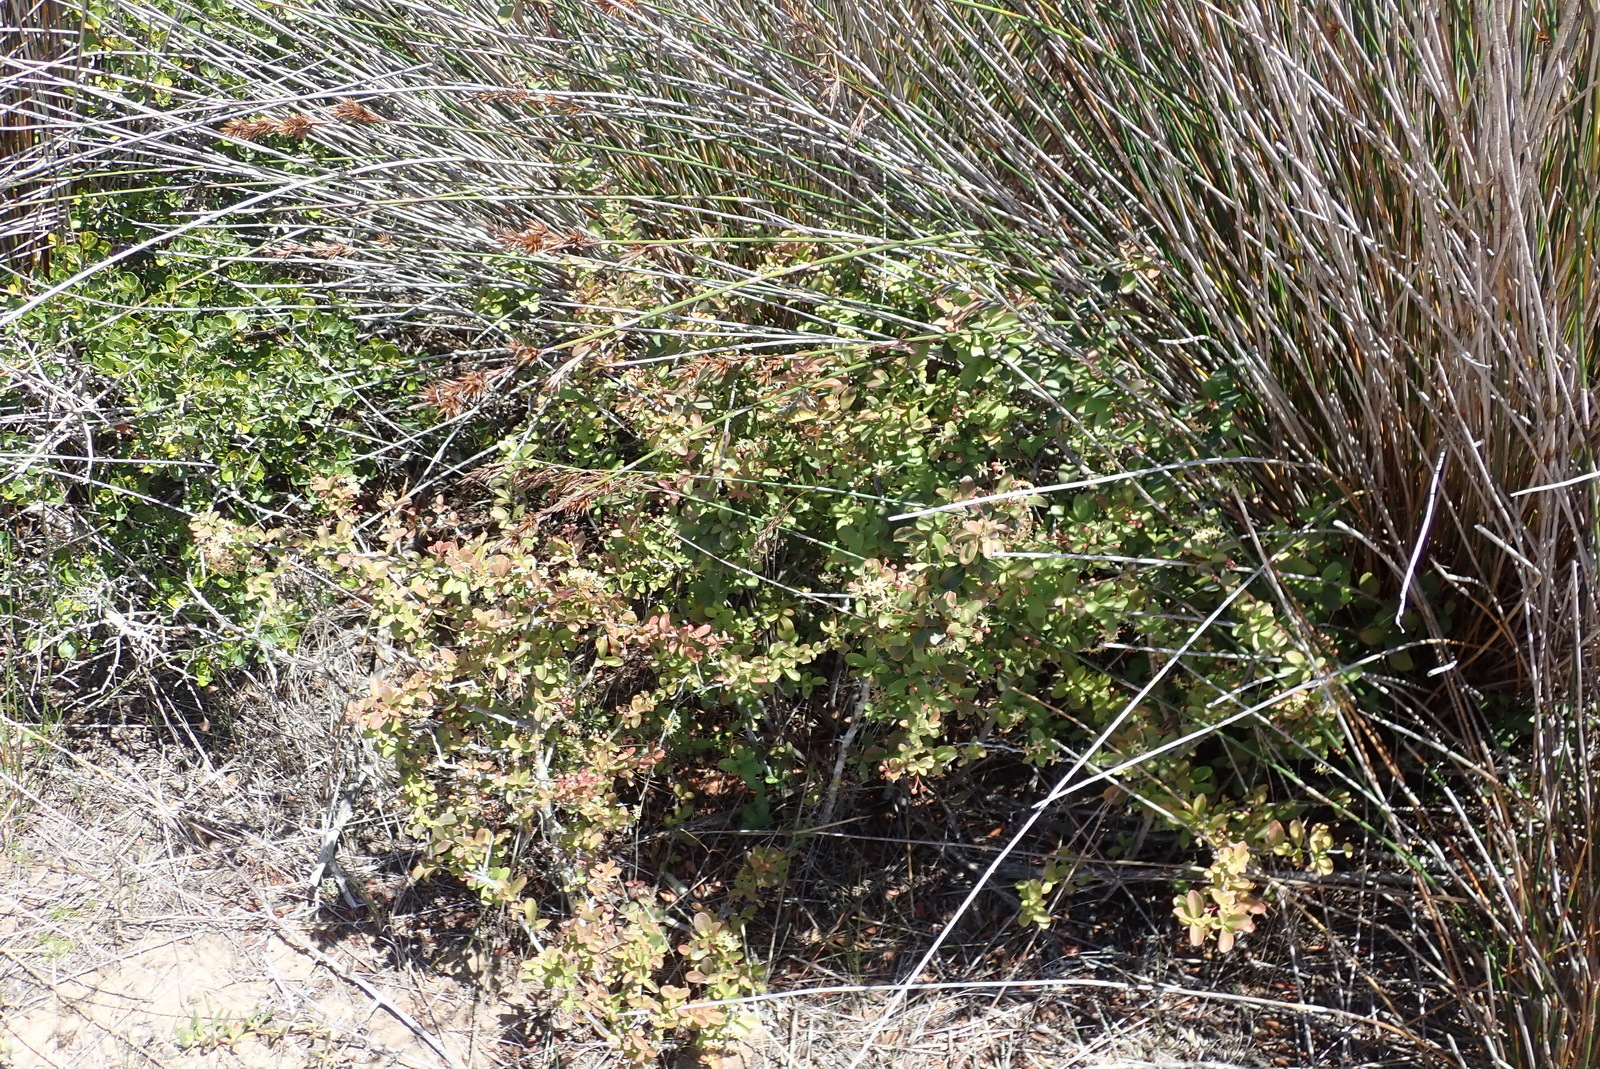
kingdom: Plantae
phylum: Tracheophyta
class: Magnoliopsida
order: Celastrales
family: Celastraceae
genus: Putterlickia
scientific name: Putterlickia pyracantha
